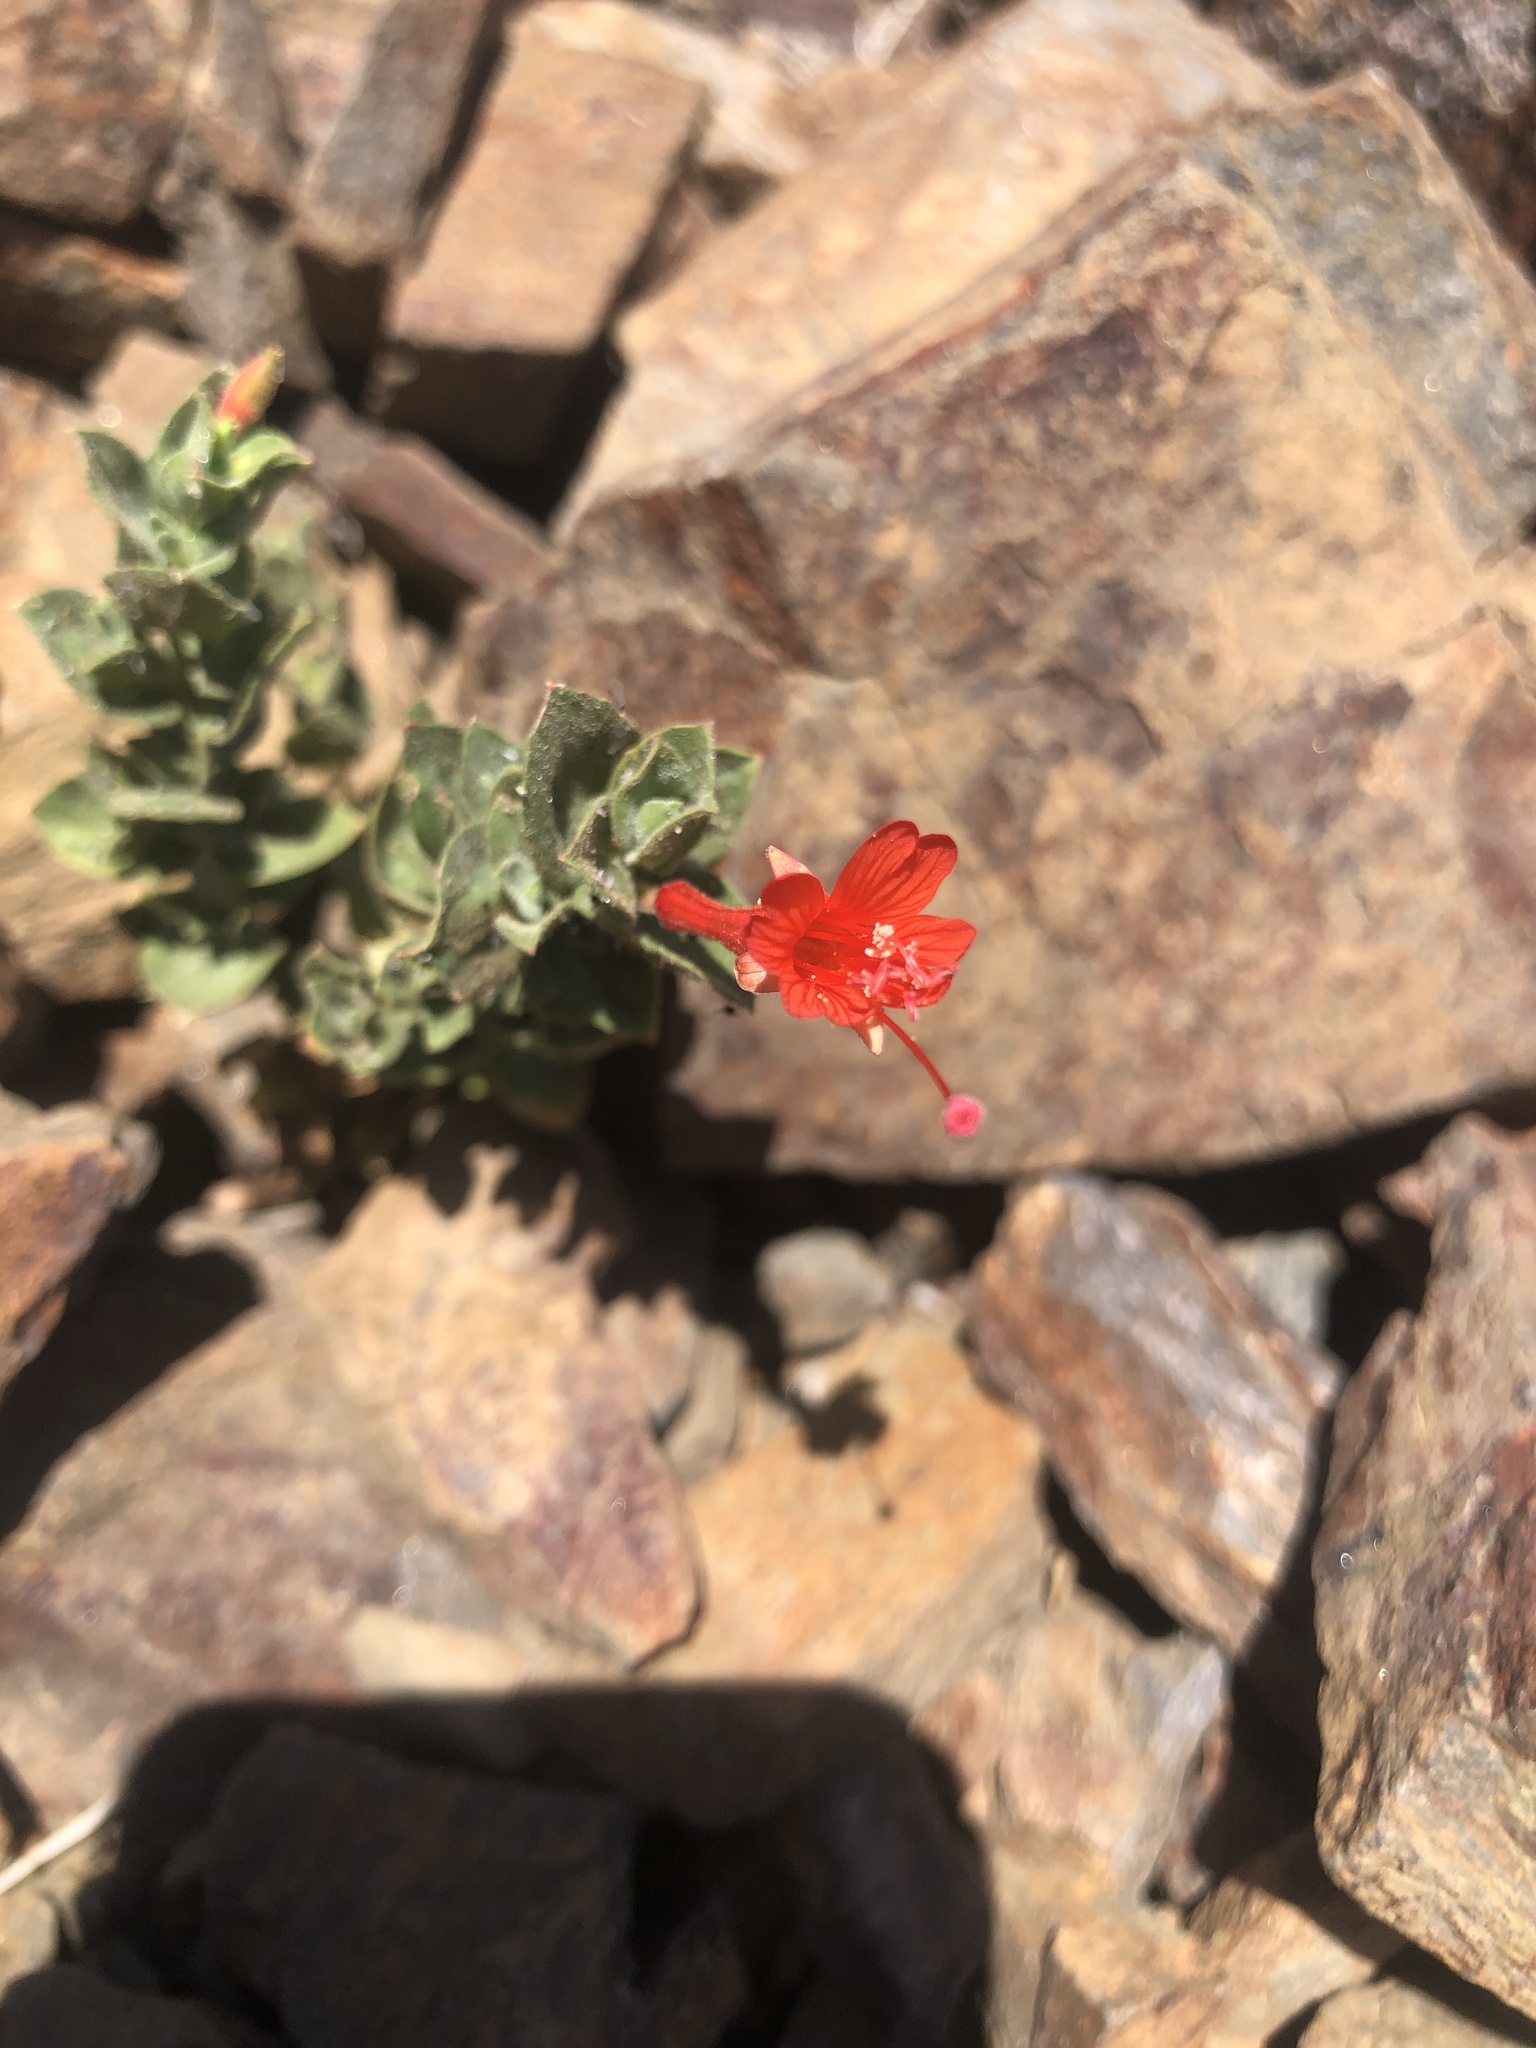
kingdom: Plantae
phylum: Tracheophyta
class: Magnoliopsida
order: Myrtales
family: Onagraceae
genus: Epilobium
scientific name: Epilobium canum
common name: California-fuchsia
